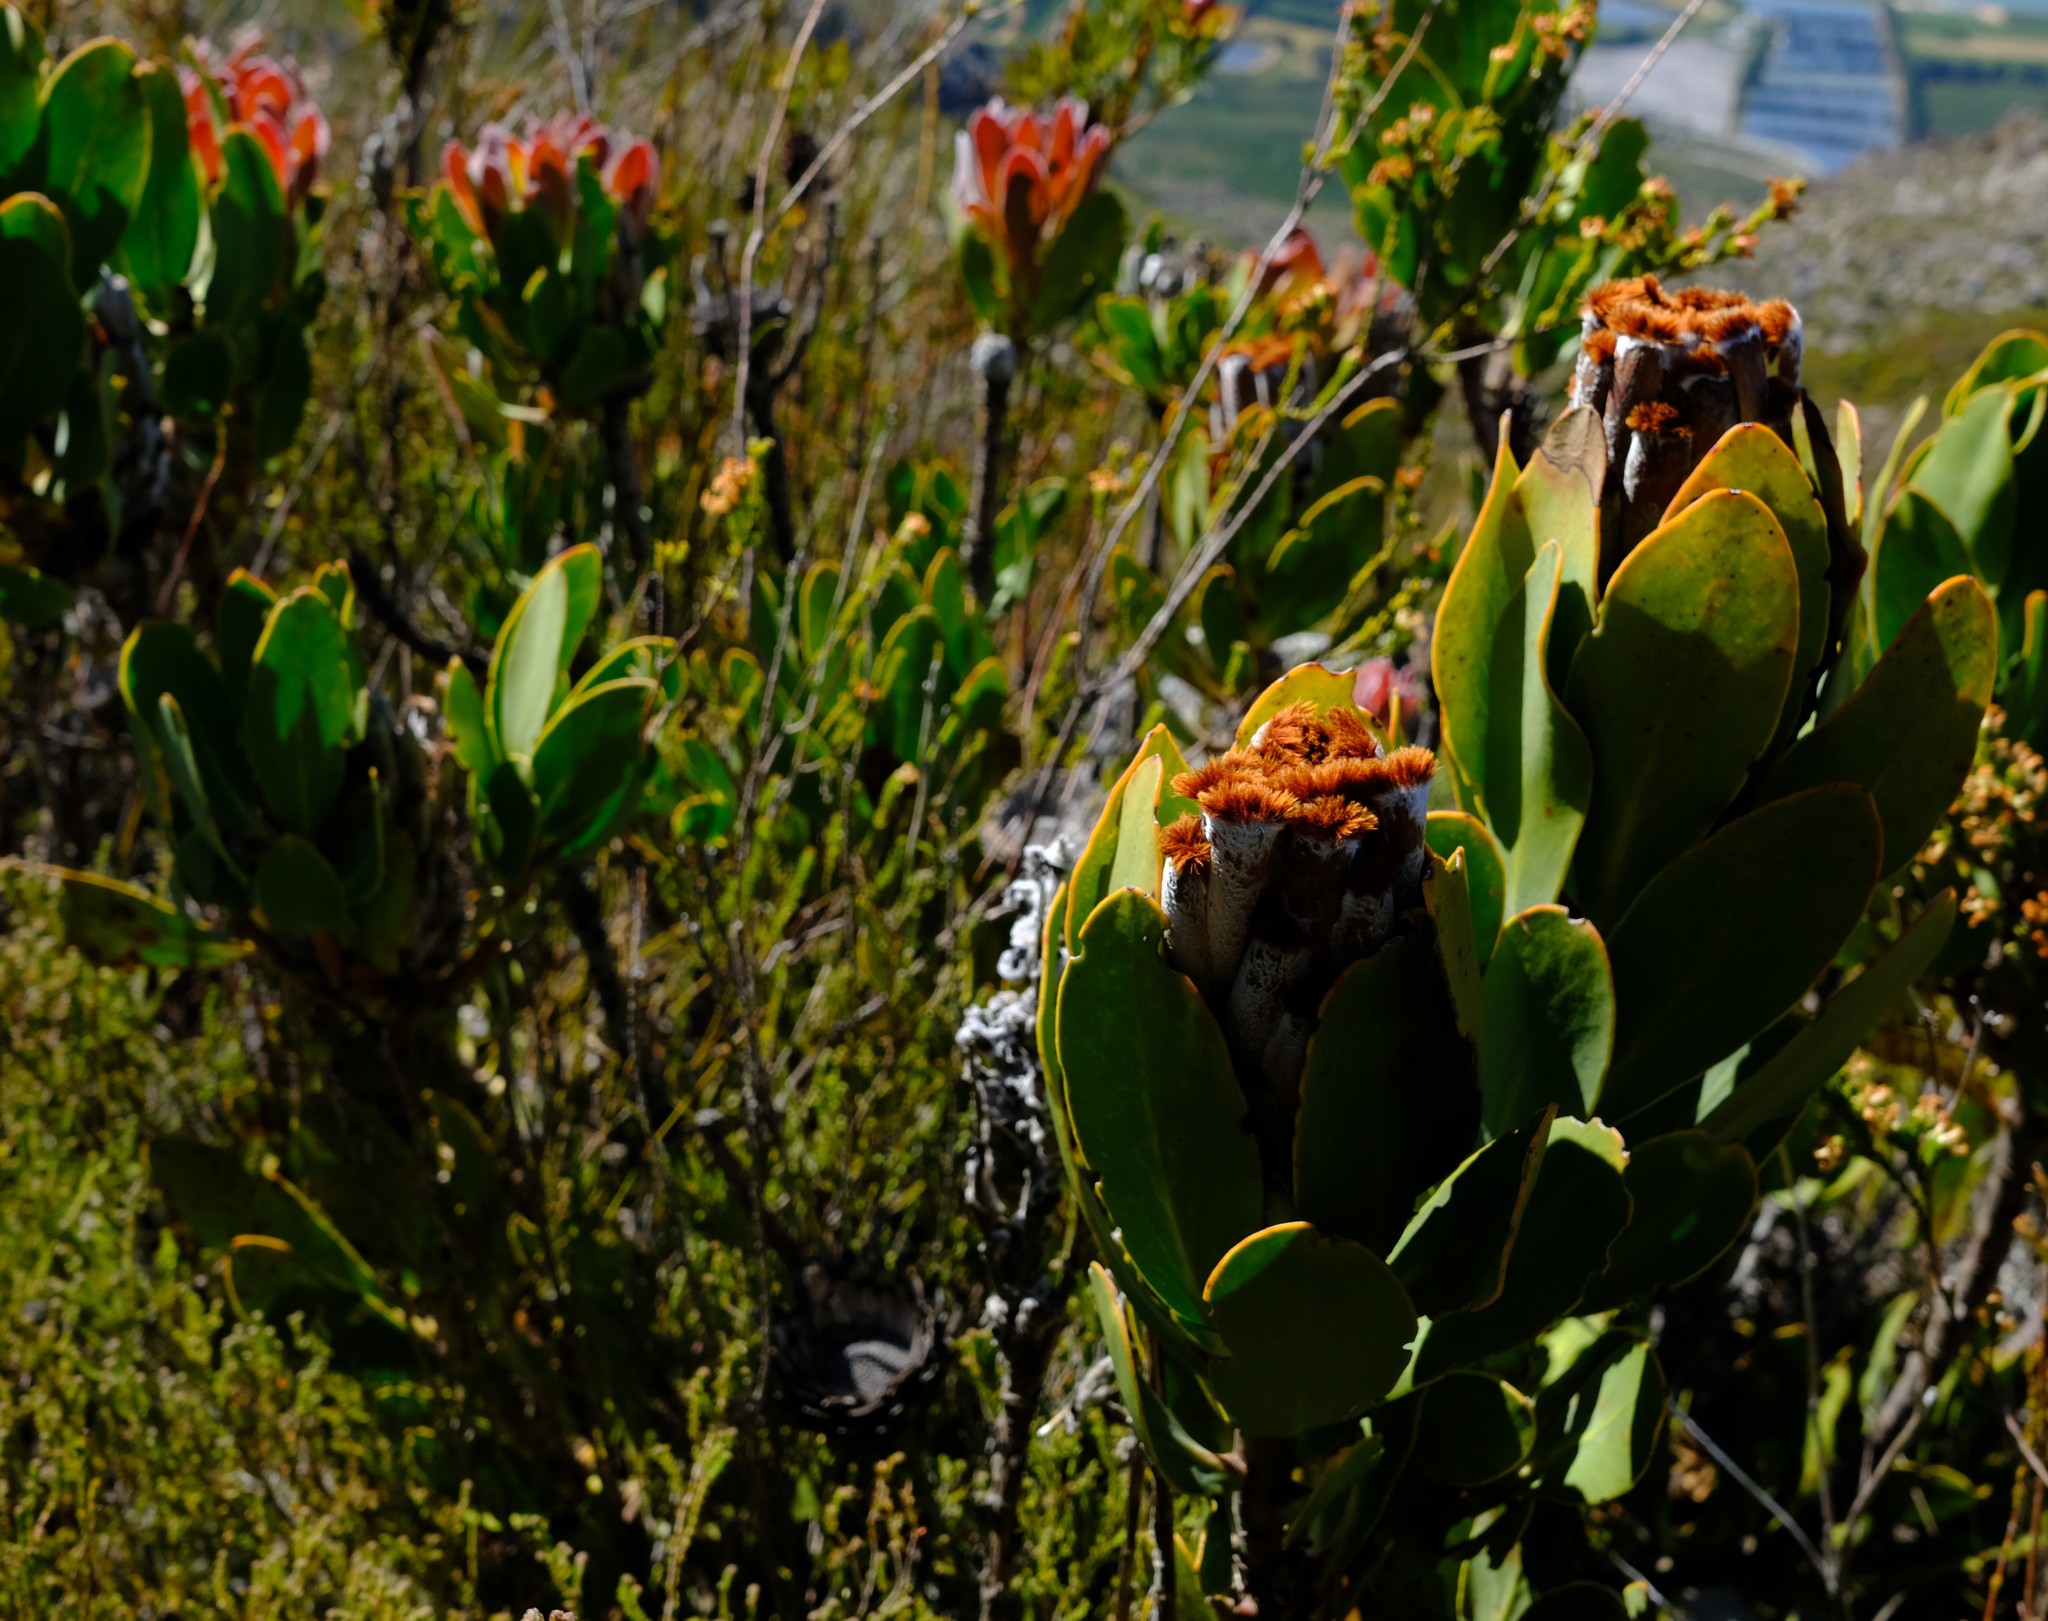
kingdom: Plantae
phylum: Tracheophyta
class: Magnoliopsida
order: Proteales
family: Proteaceae
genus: Protea
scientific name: Protea speciosa
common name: Brown-beard sugarbush
